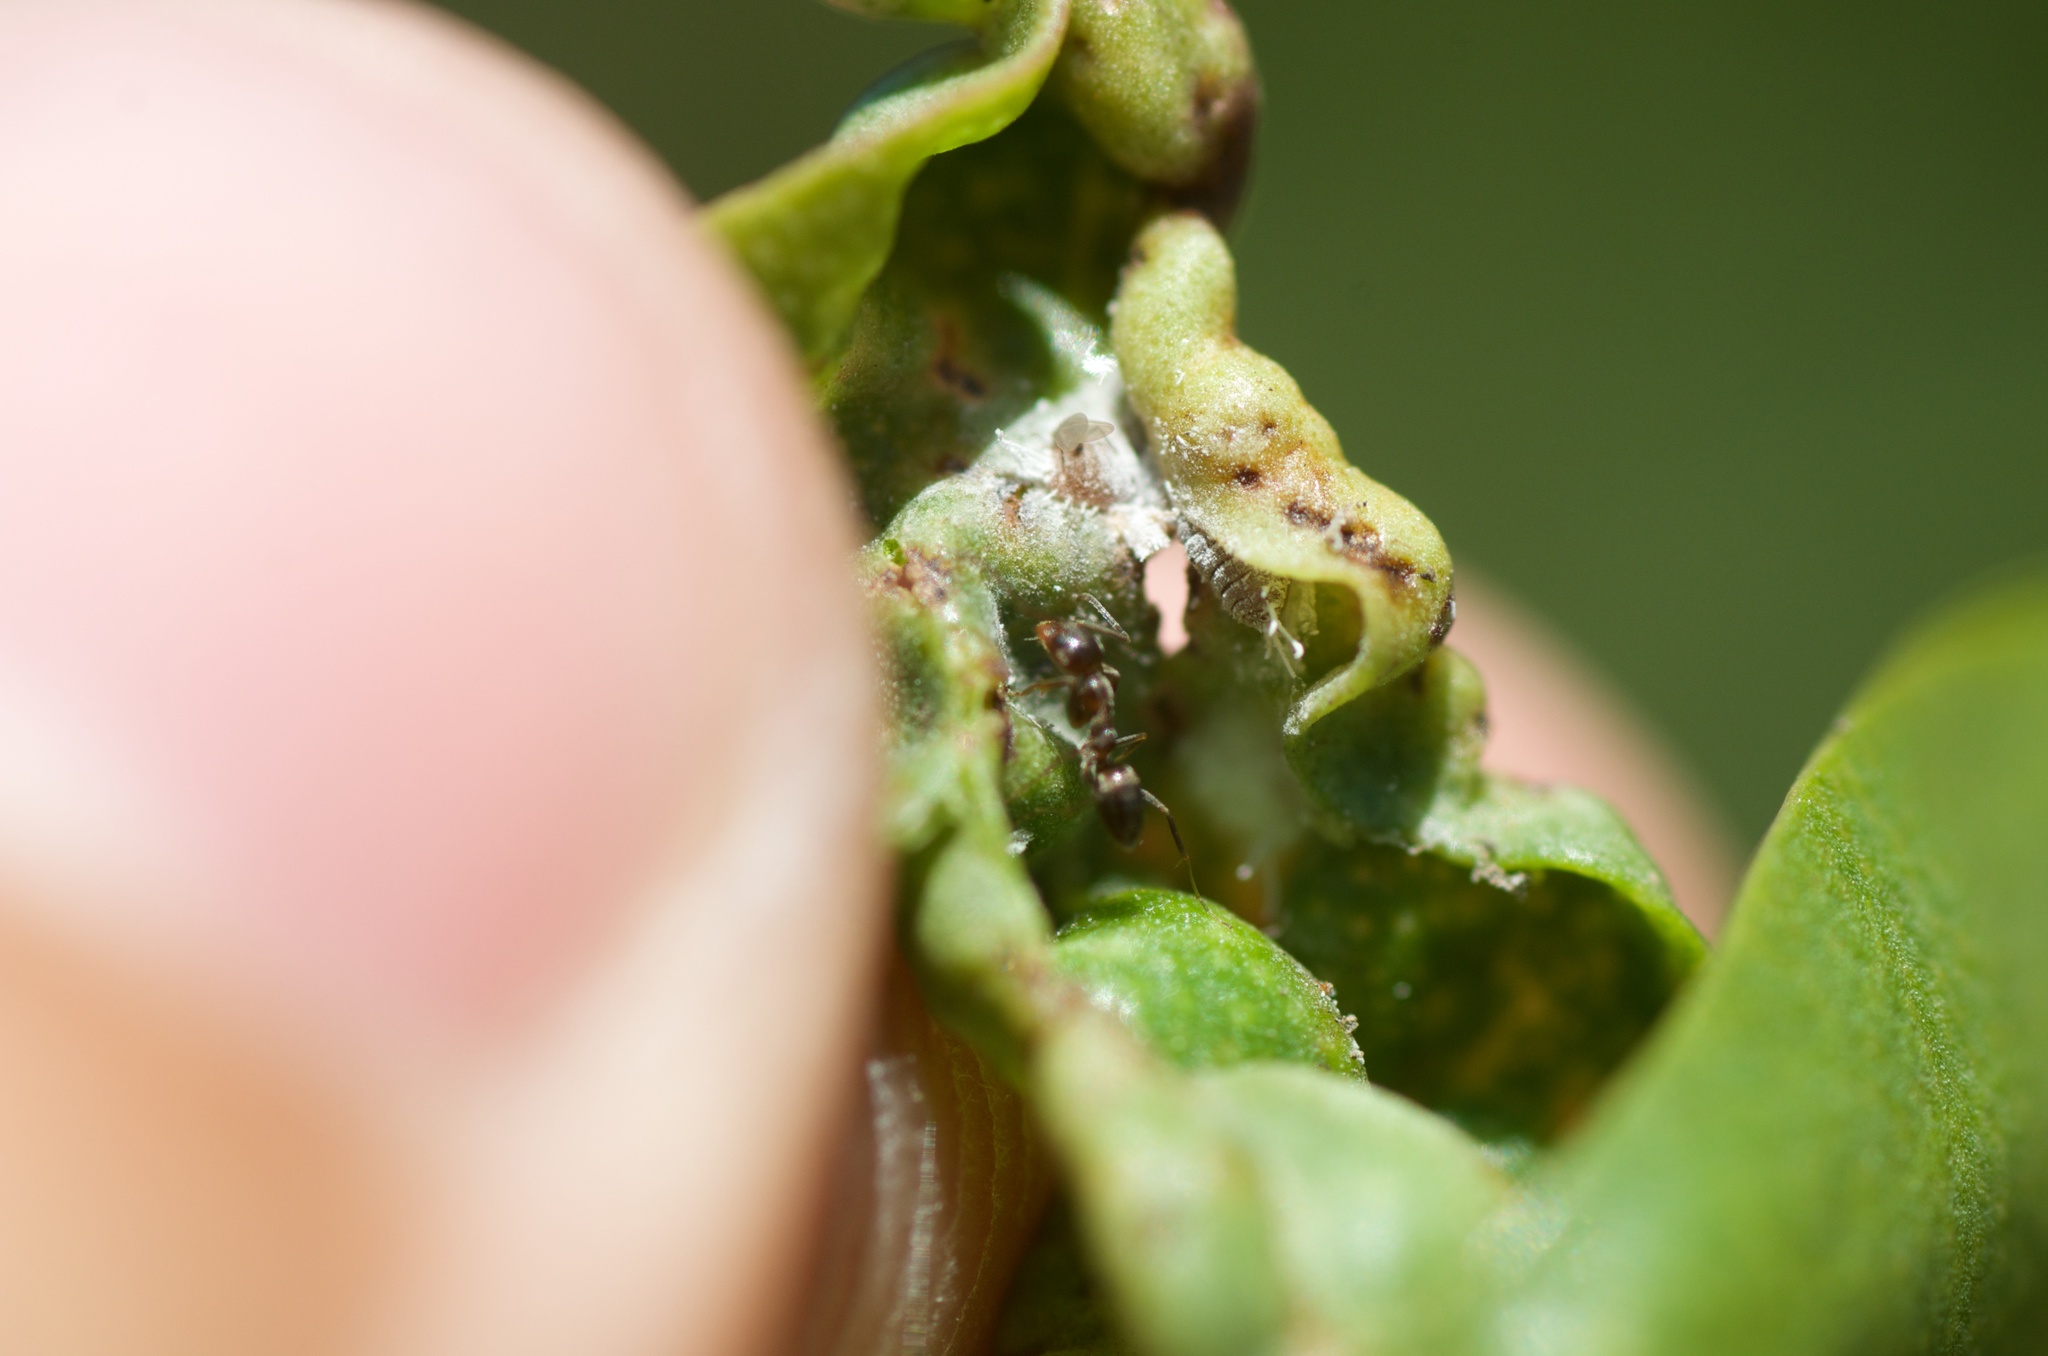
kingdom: Animalia
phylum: Arthropoda
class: Insecta
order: Hymenoptera
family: Formicidae
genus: Linepithema
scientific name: Linepithema humile
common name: Argentine ant
